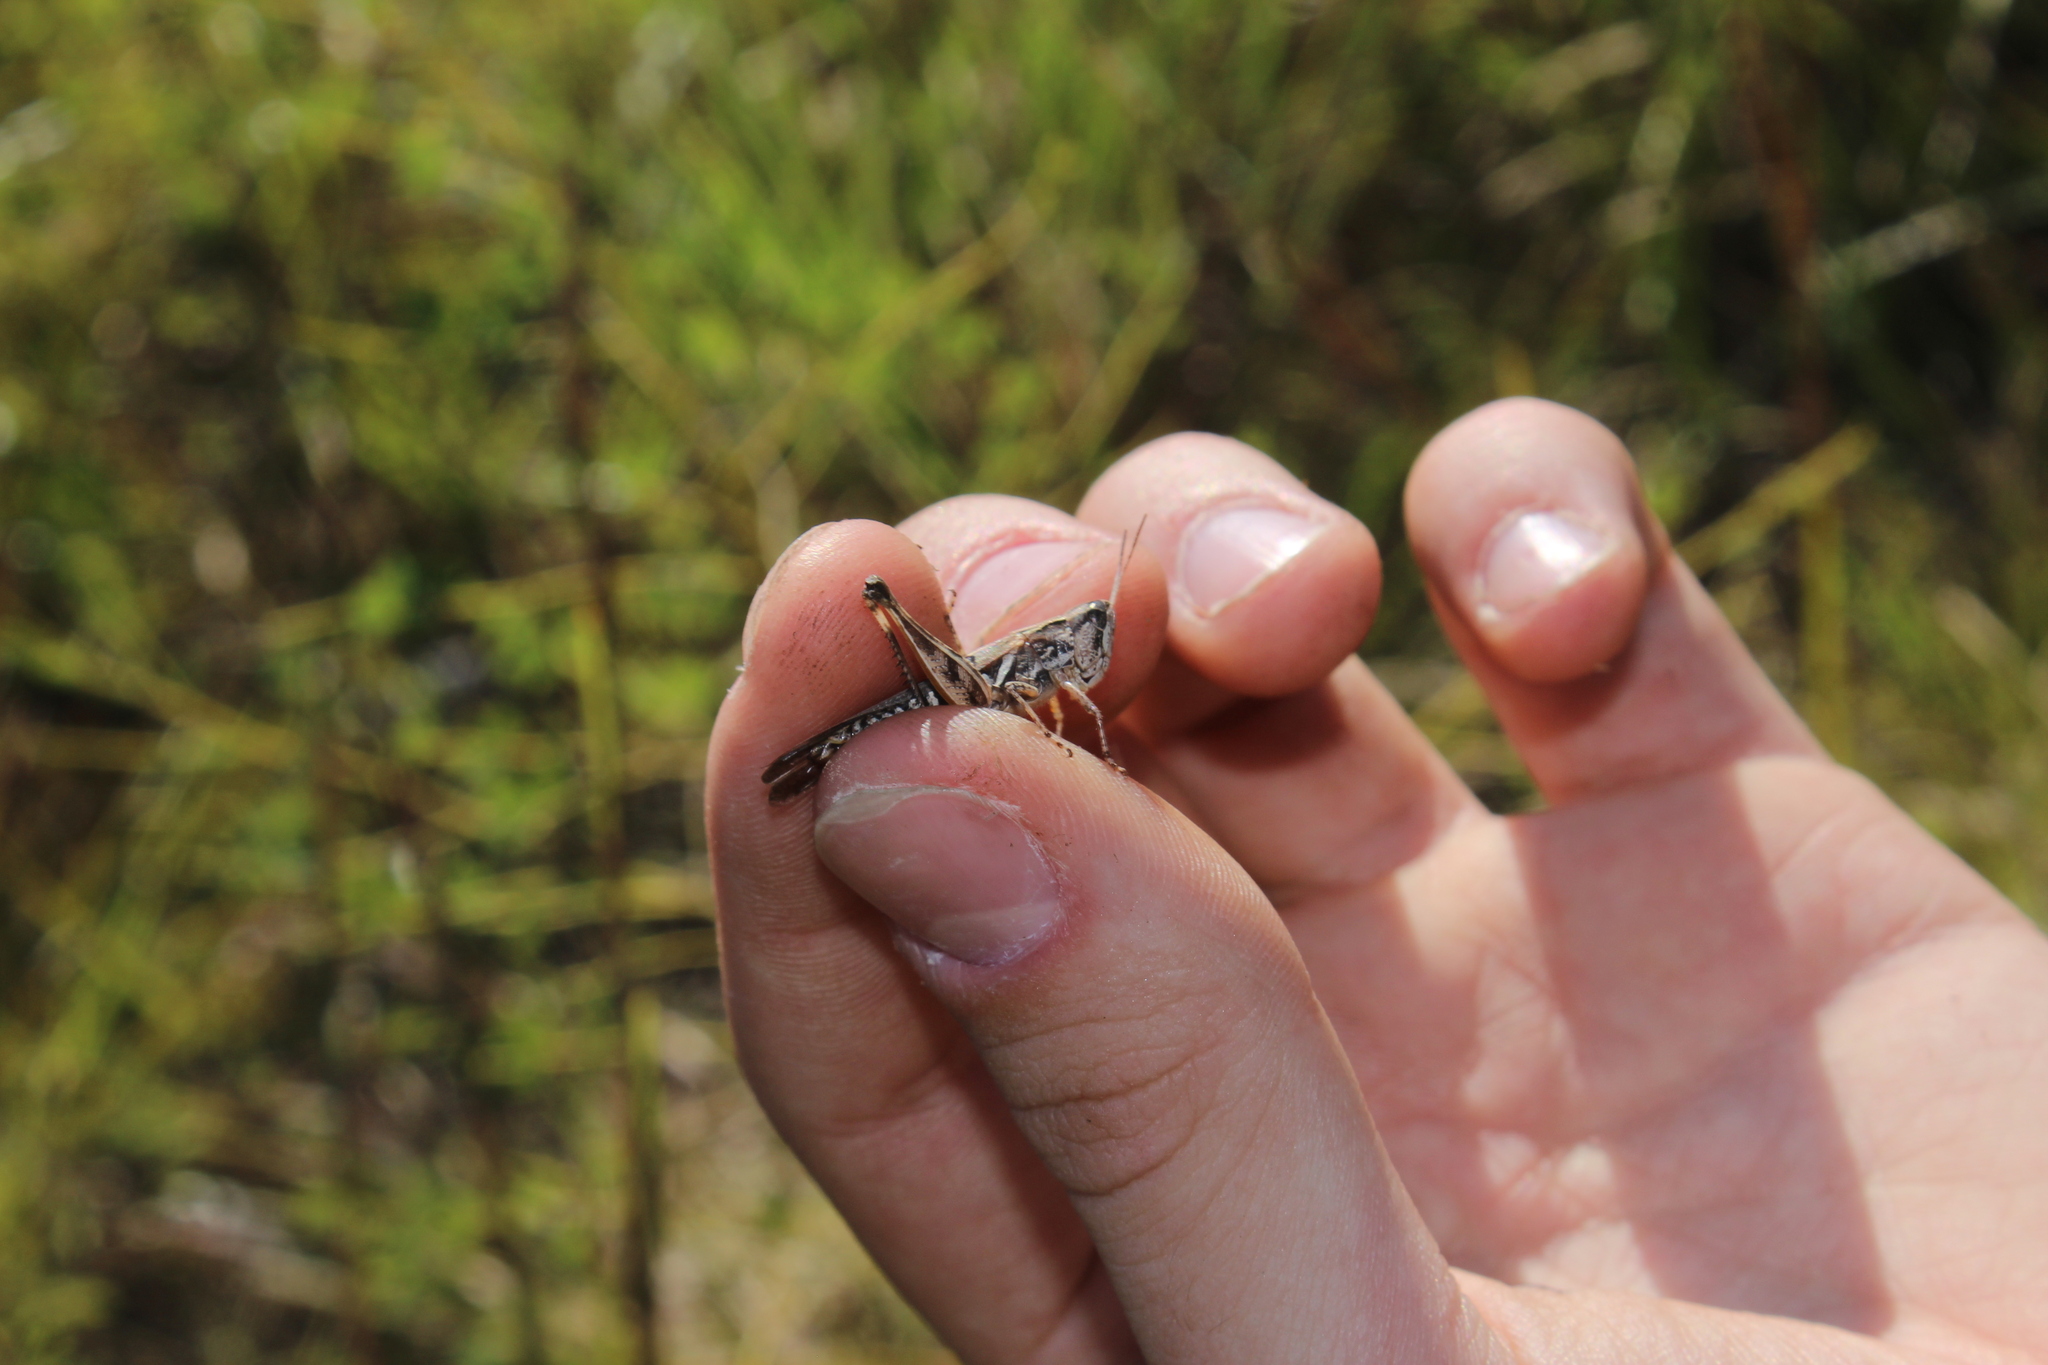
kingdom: Animalia
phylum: Arthropoda
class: Insecta
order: Orthoptera
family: Acrididae
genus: Orphulella
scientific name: Orphulella pelidna
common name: Spotted-wing grasshopper
